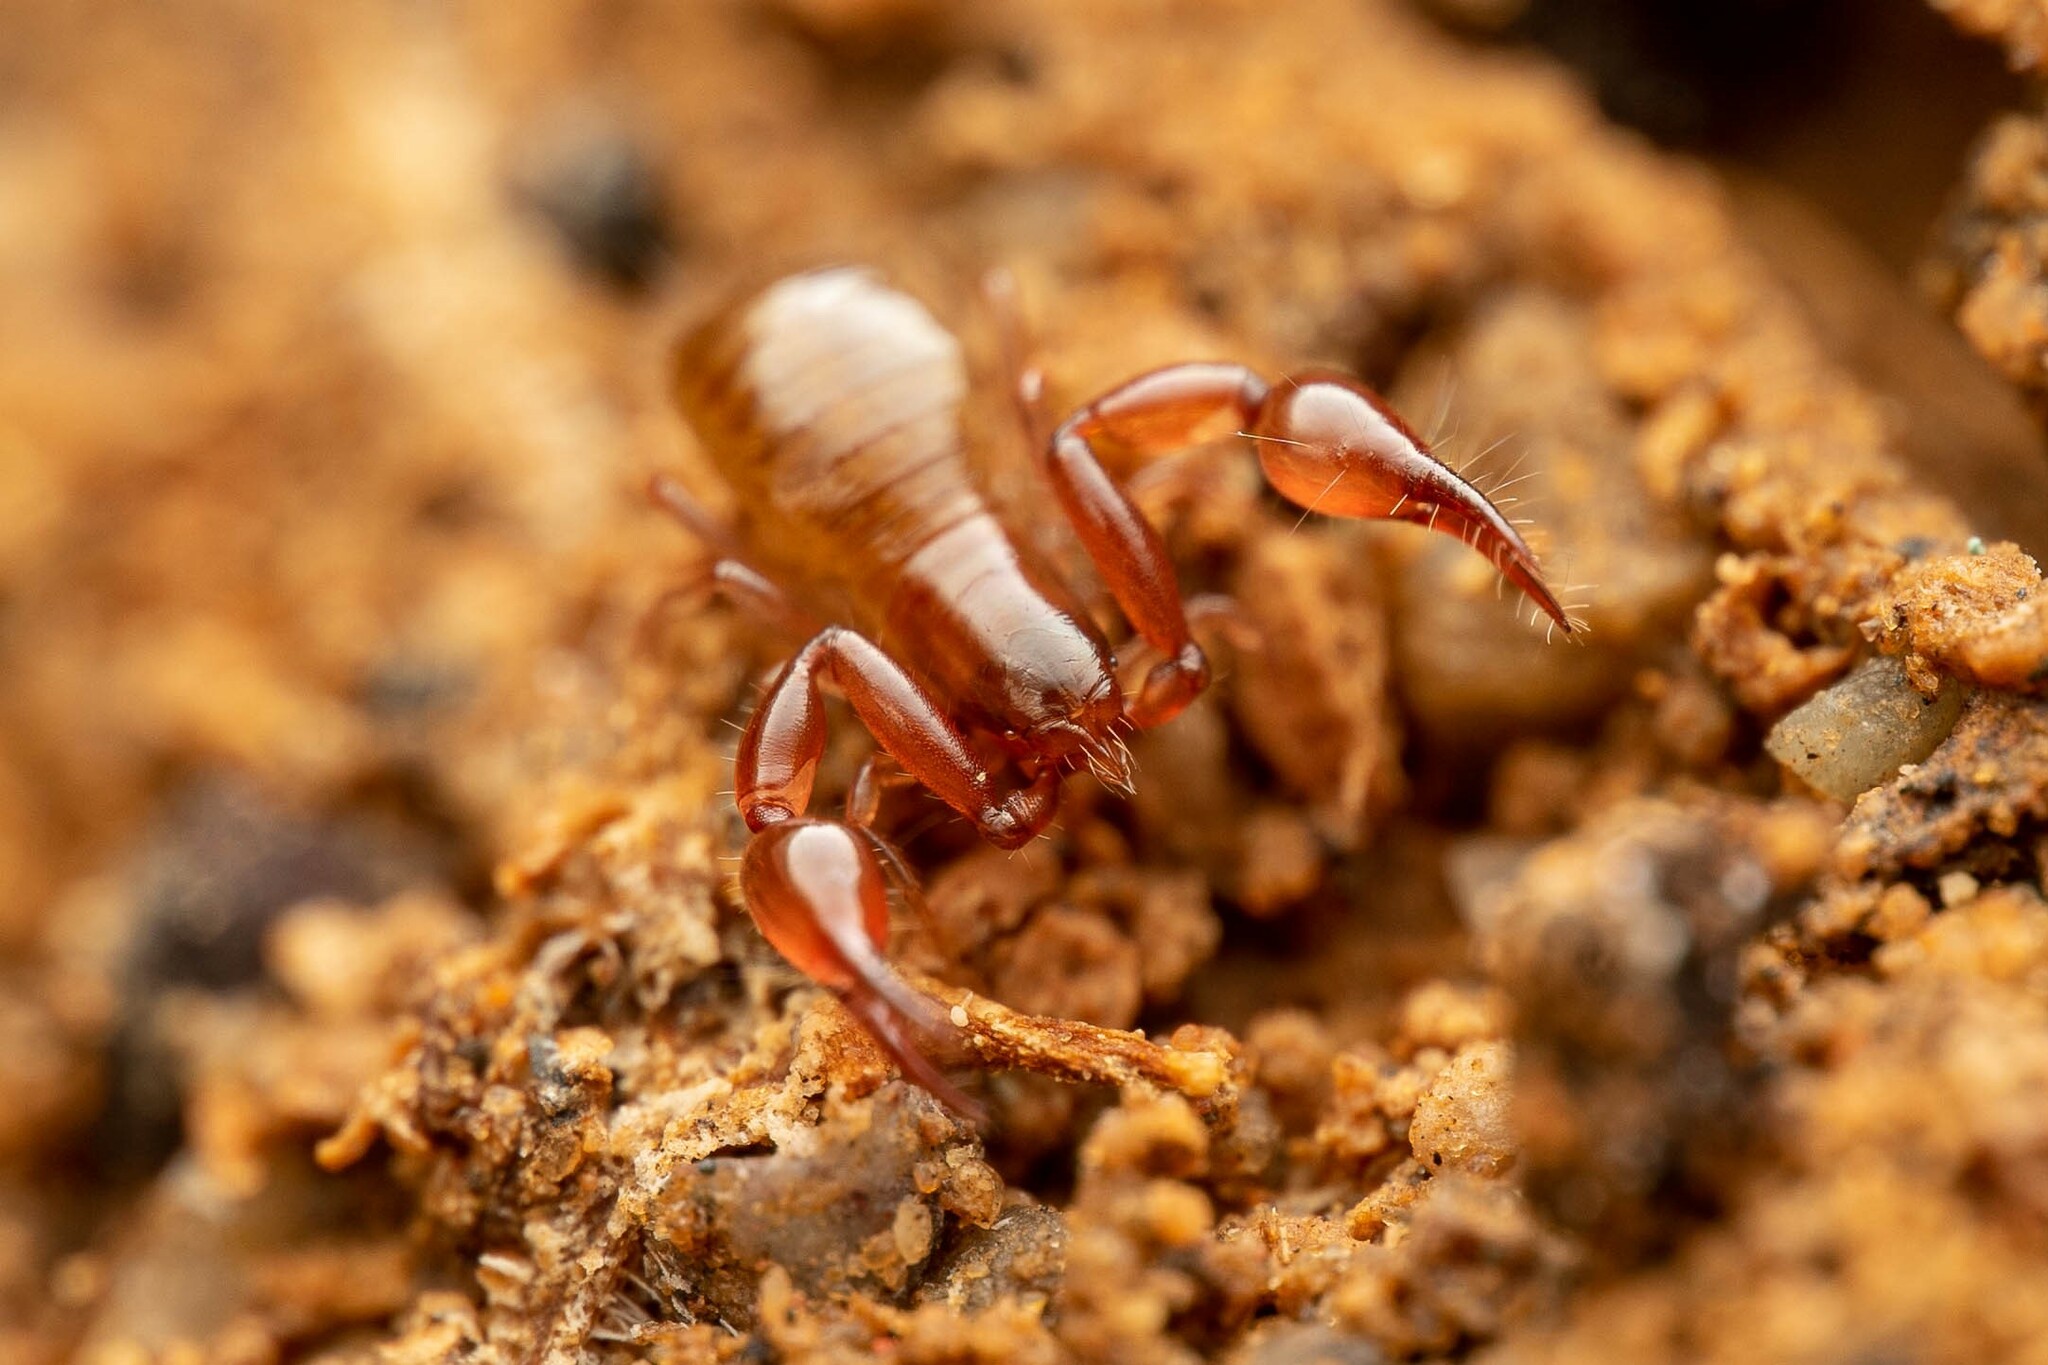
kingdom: Animalia
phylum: Arthropoda
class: Arachnida
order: Pseudoscorpiones
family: Ideoroncidae
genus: Albiorix
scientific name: Albiorix parvidentatus
